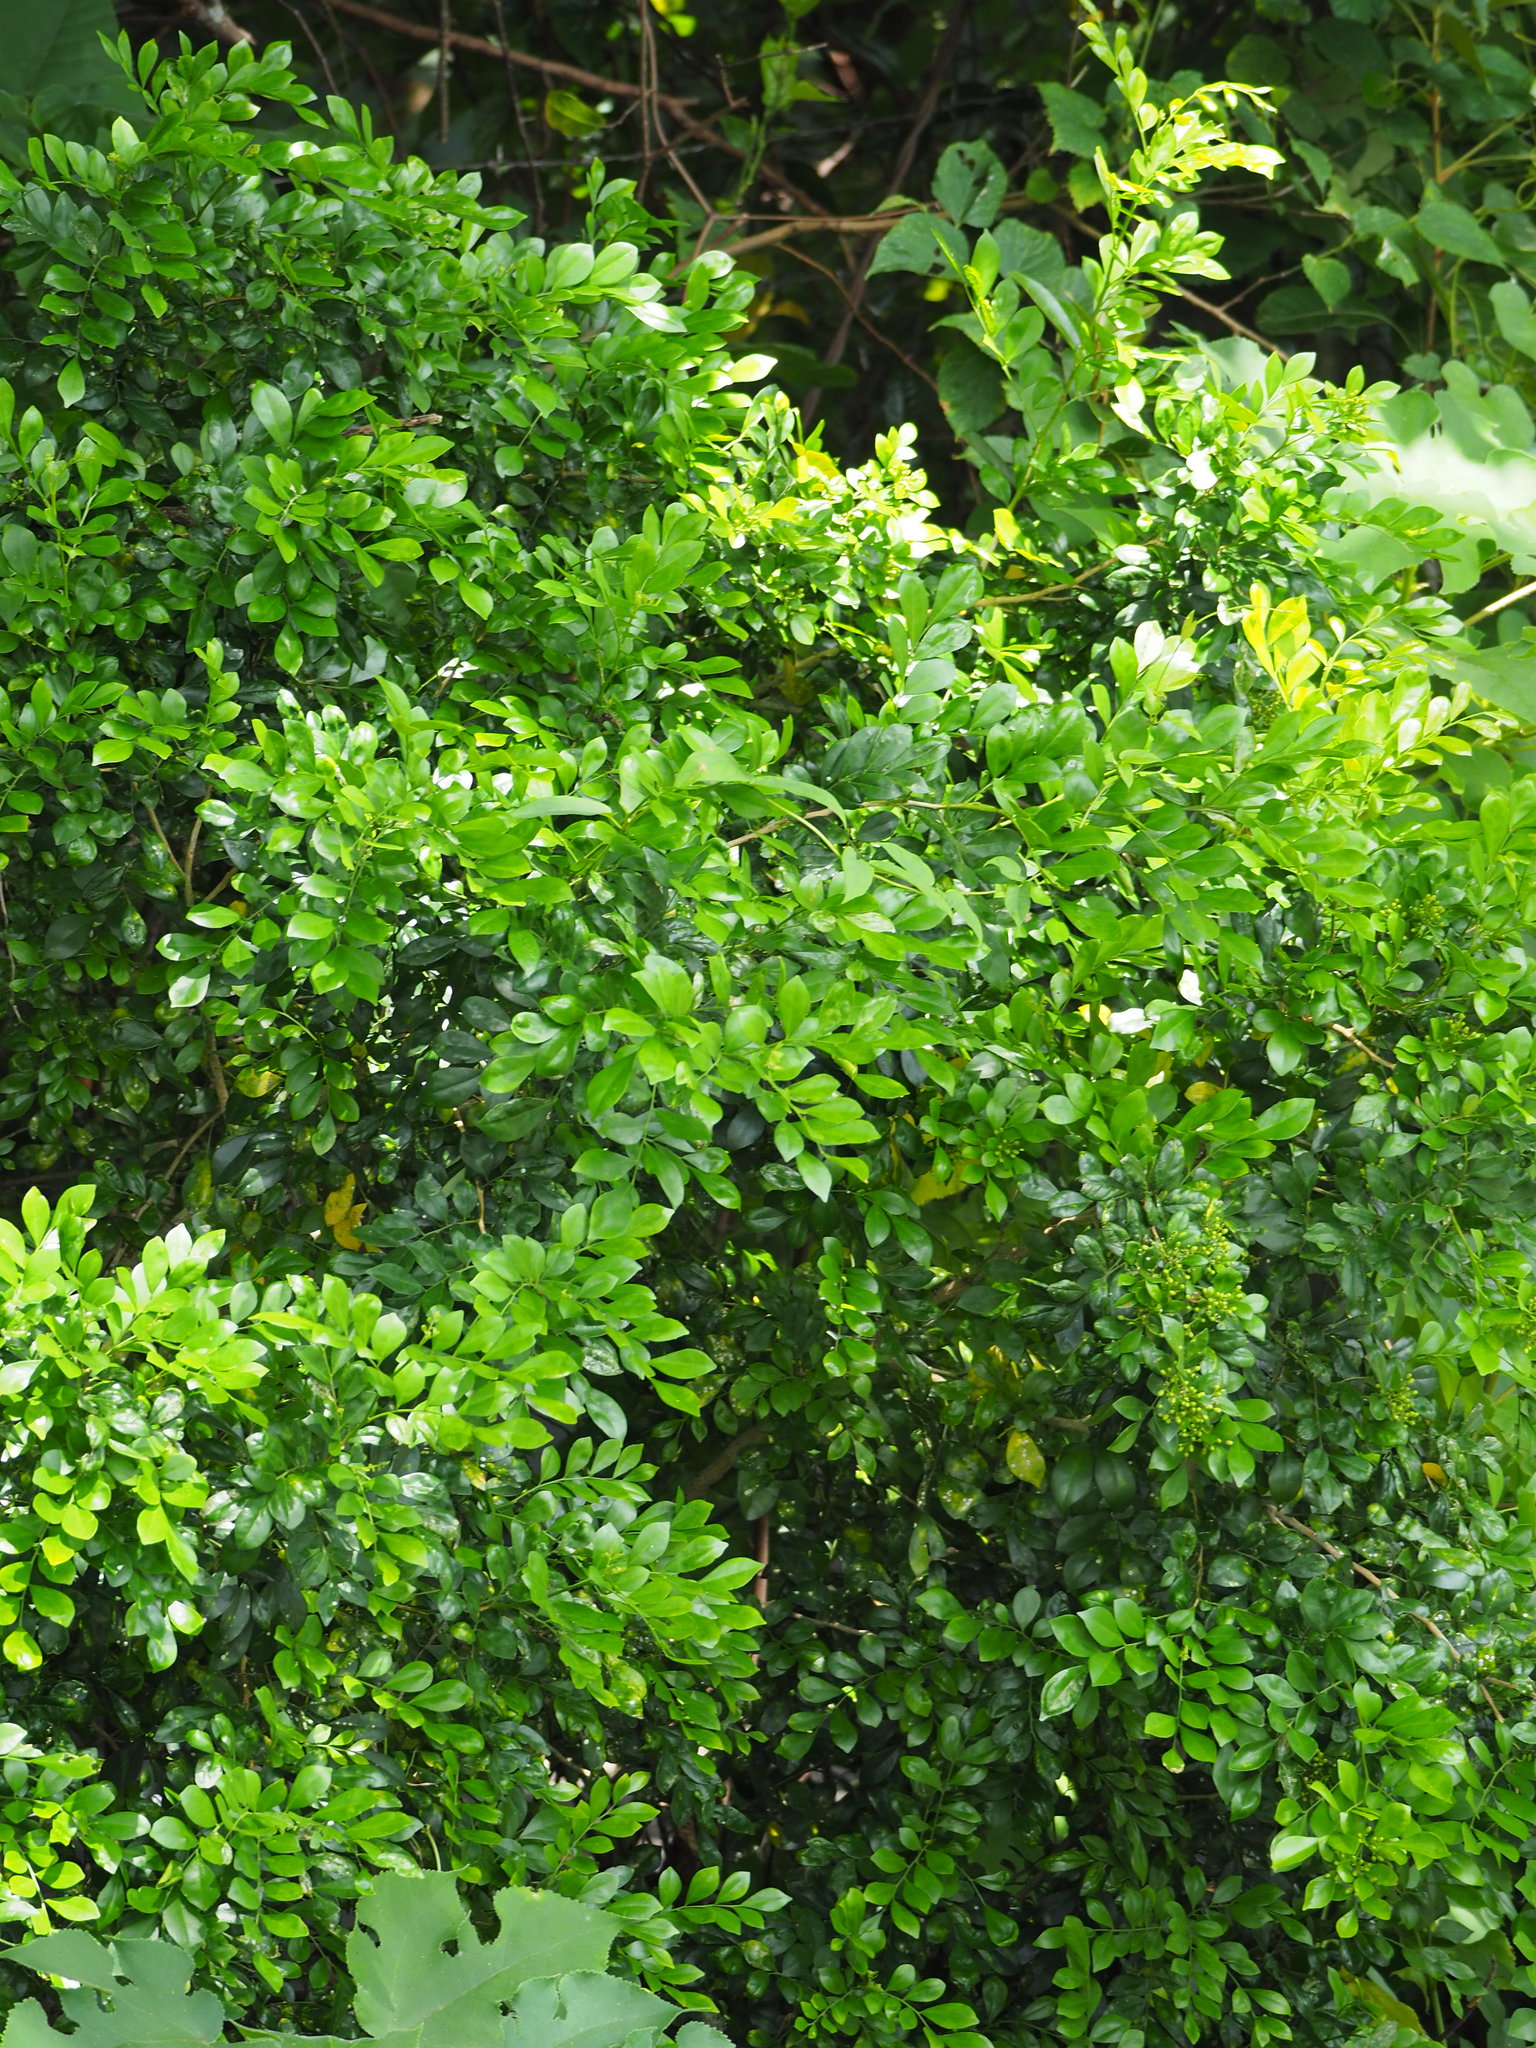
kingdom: Plantae
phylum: Tracheophyta
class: Magnoliopsida
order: Sapindales
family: Rutaceae
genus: Murraya
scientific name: Murraya paniculata
